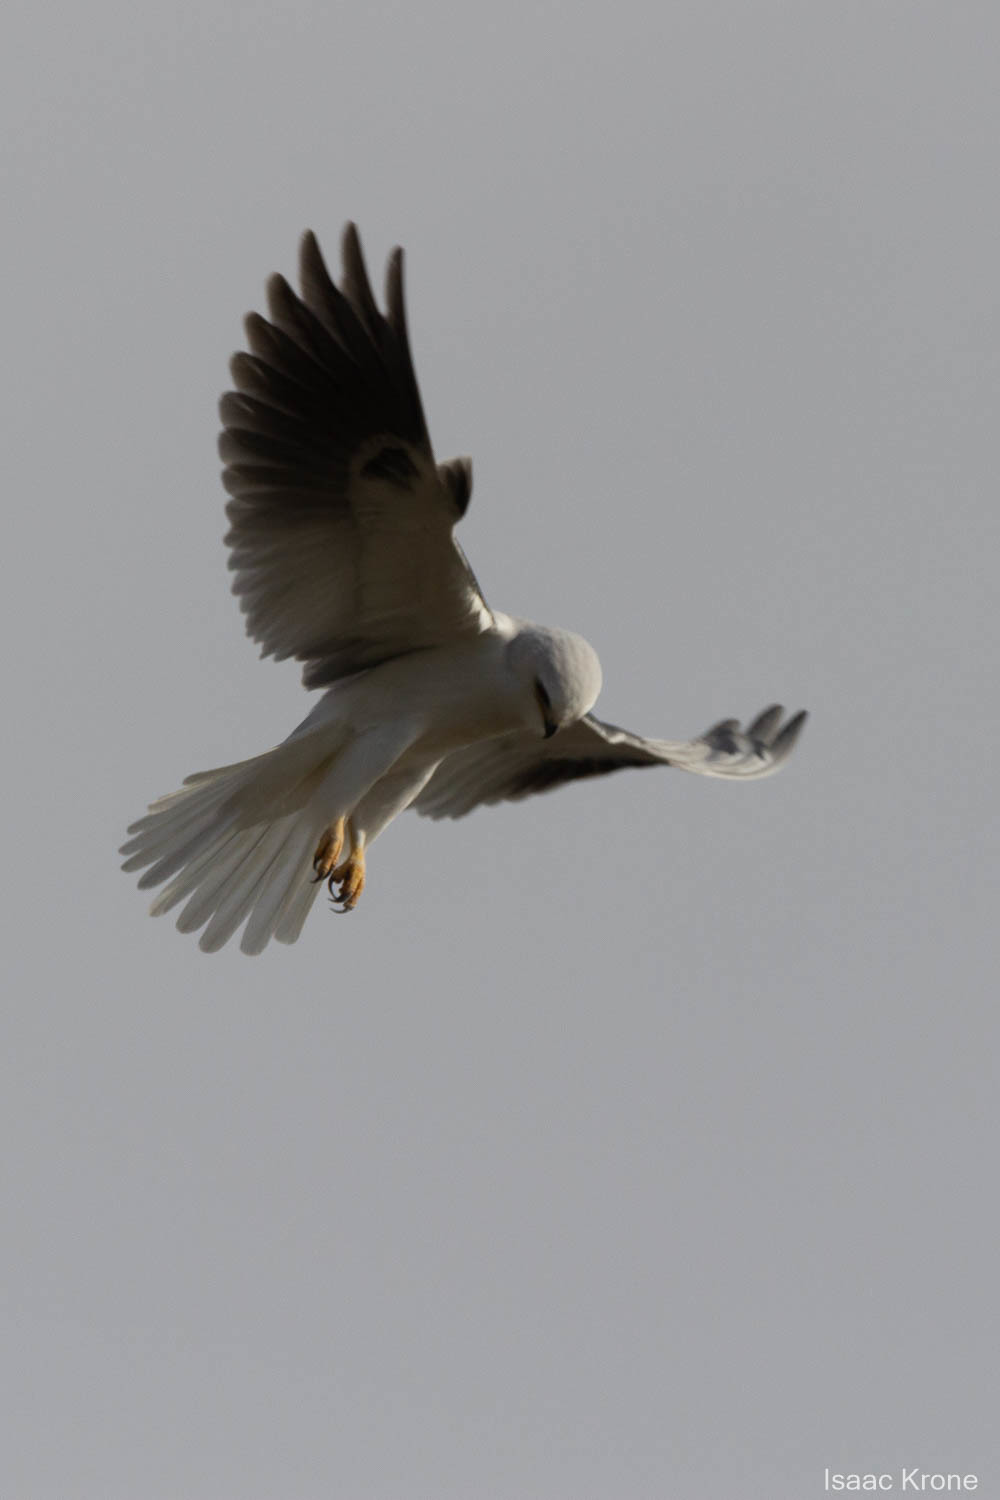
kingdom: Animalia
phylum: Chordata
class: Aves
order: Accipitriformes
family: Accipitridae
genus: Elanus
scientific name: Elanus leucurus
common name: White-tailed kite
